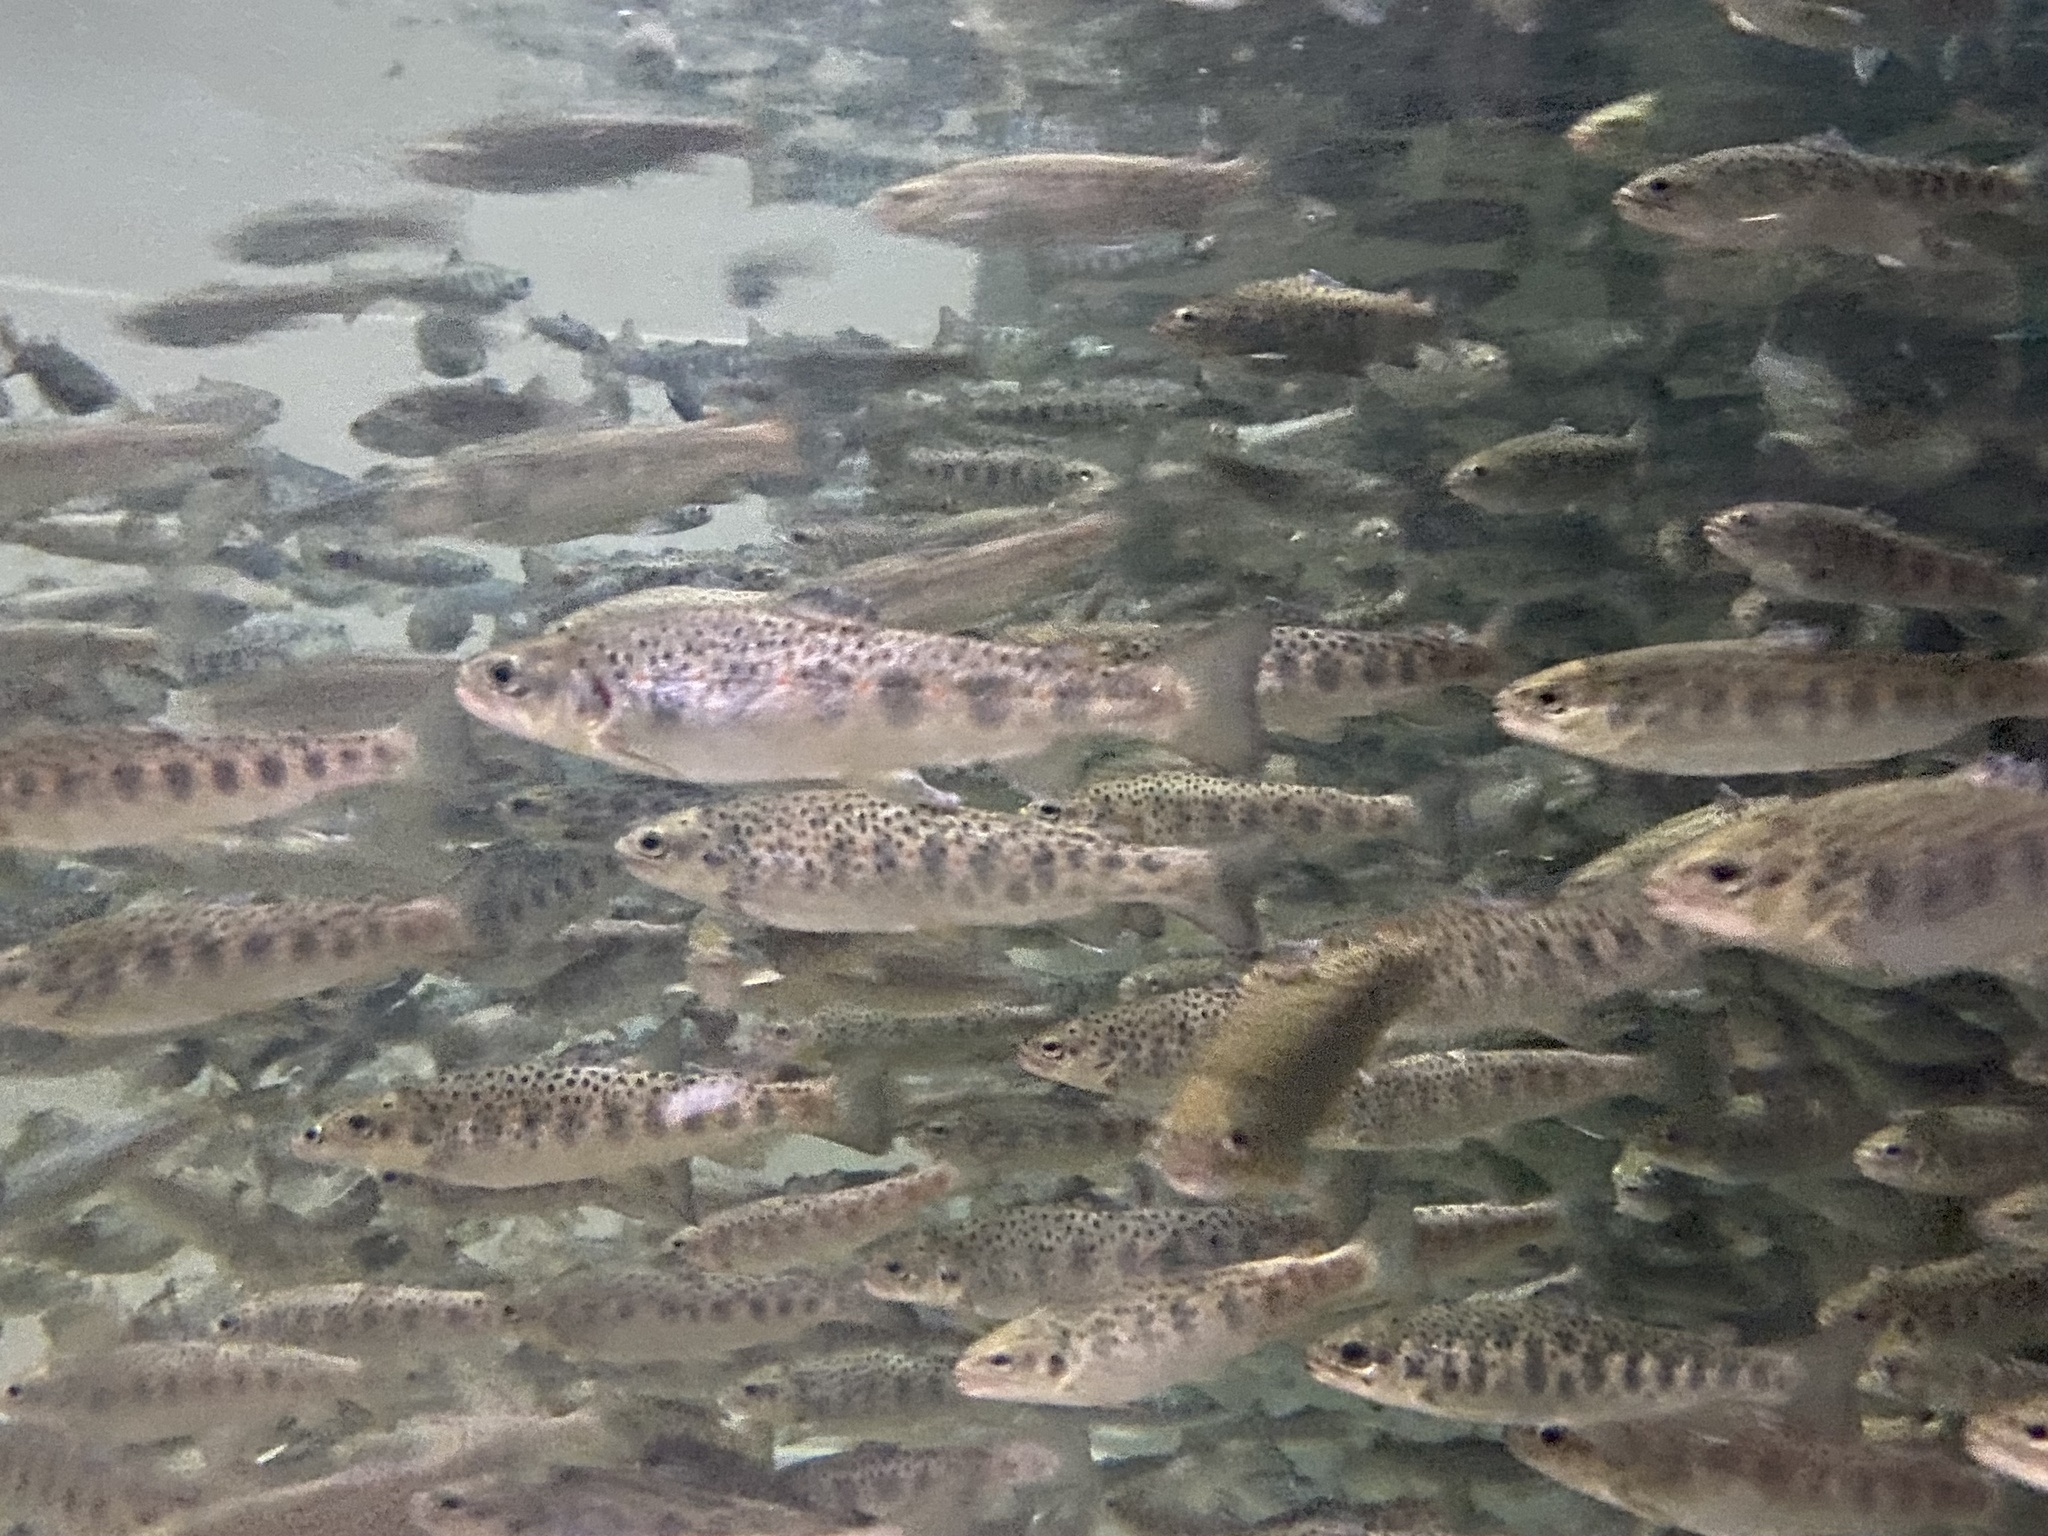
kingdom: Animalia
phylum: Chordata
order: Salmoniformes
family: Salmonidae
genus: Salmo
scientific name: Salmo trutta
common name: Brown trout
